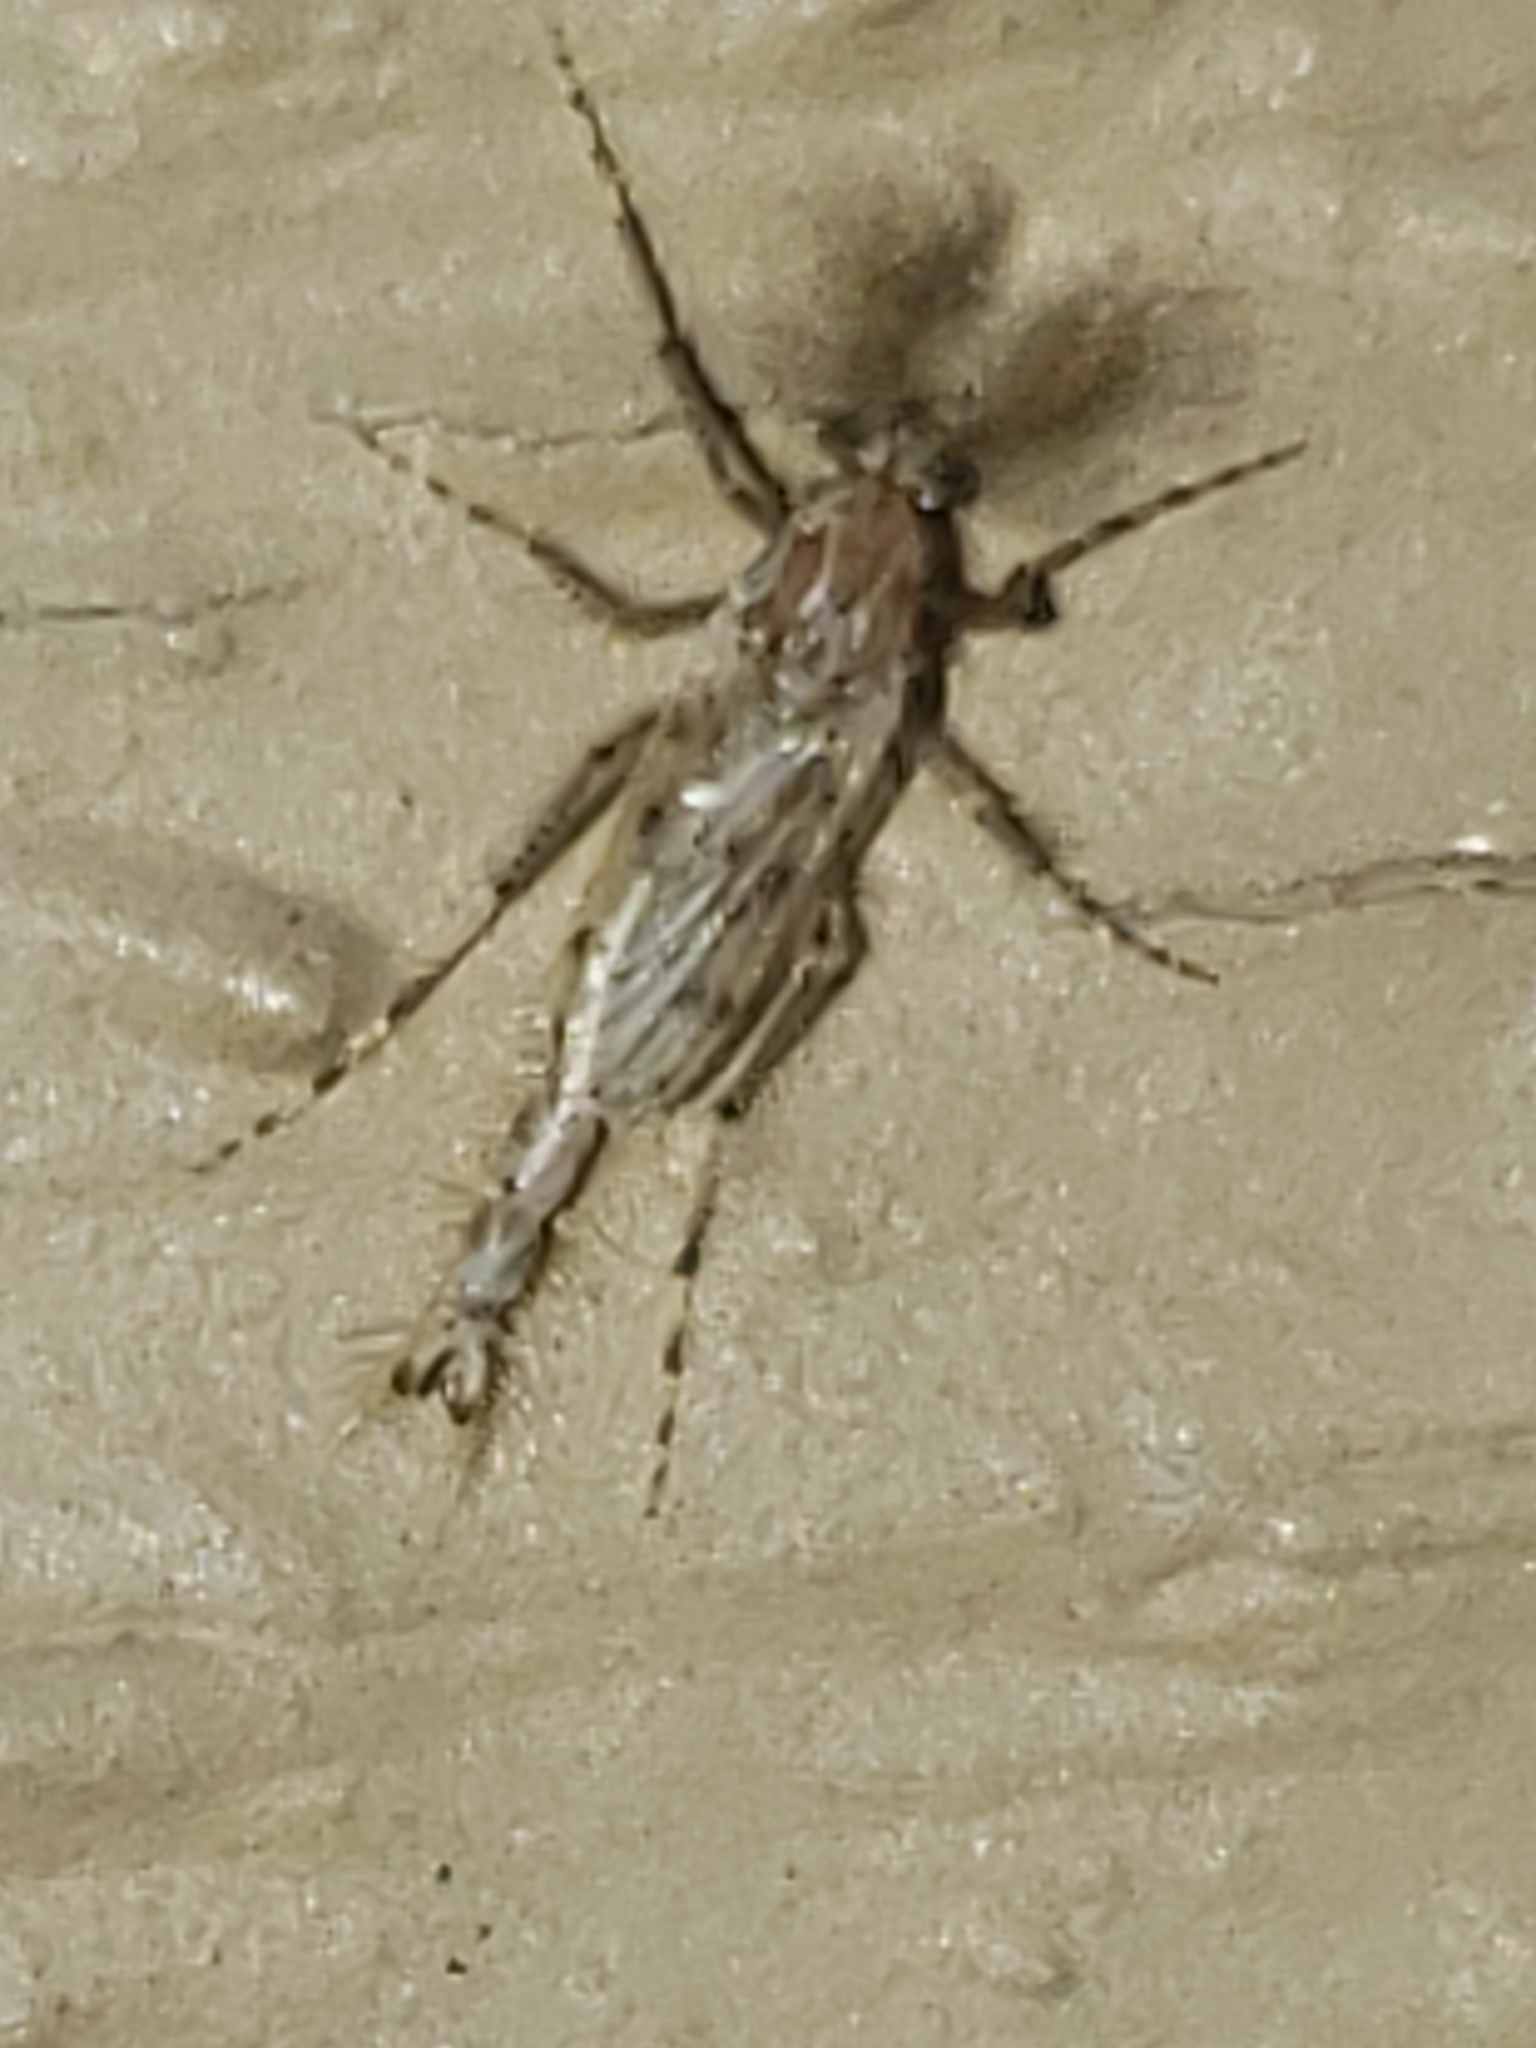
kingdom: Animalia
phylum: Arthropoda
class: Insecta
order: Diptera
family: Chaoboridae
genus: Chaoborus
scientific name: Chaoborus punctipennis
